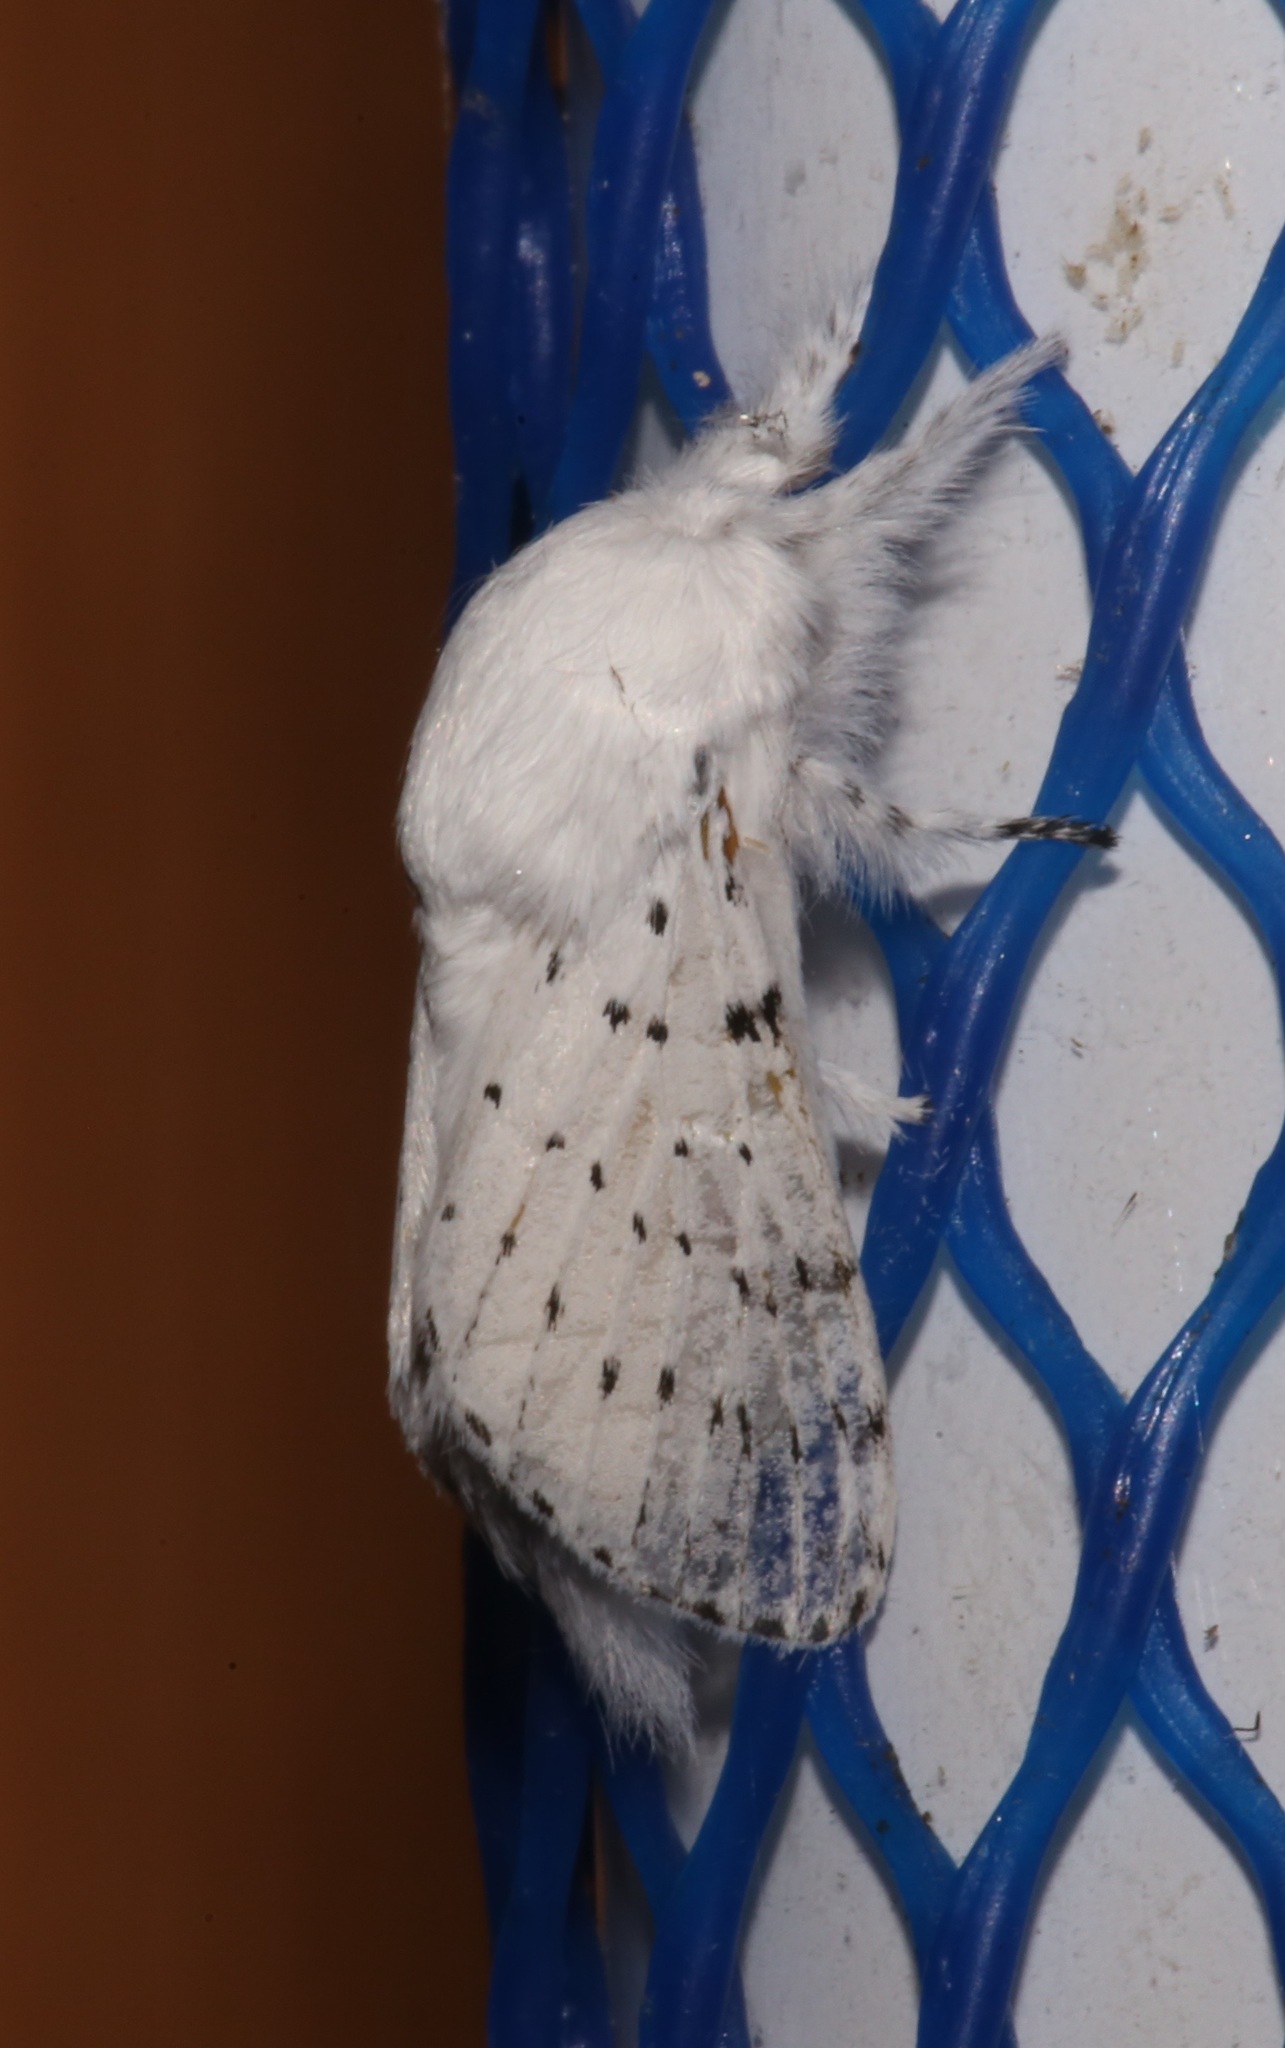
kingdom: Animalia
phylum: Arthropoda
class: Insecta
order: Lepidoptera
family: Lasiocampidae
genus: Artace
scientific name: Artace cribrarius
